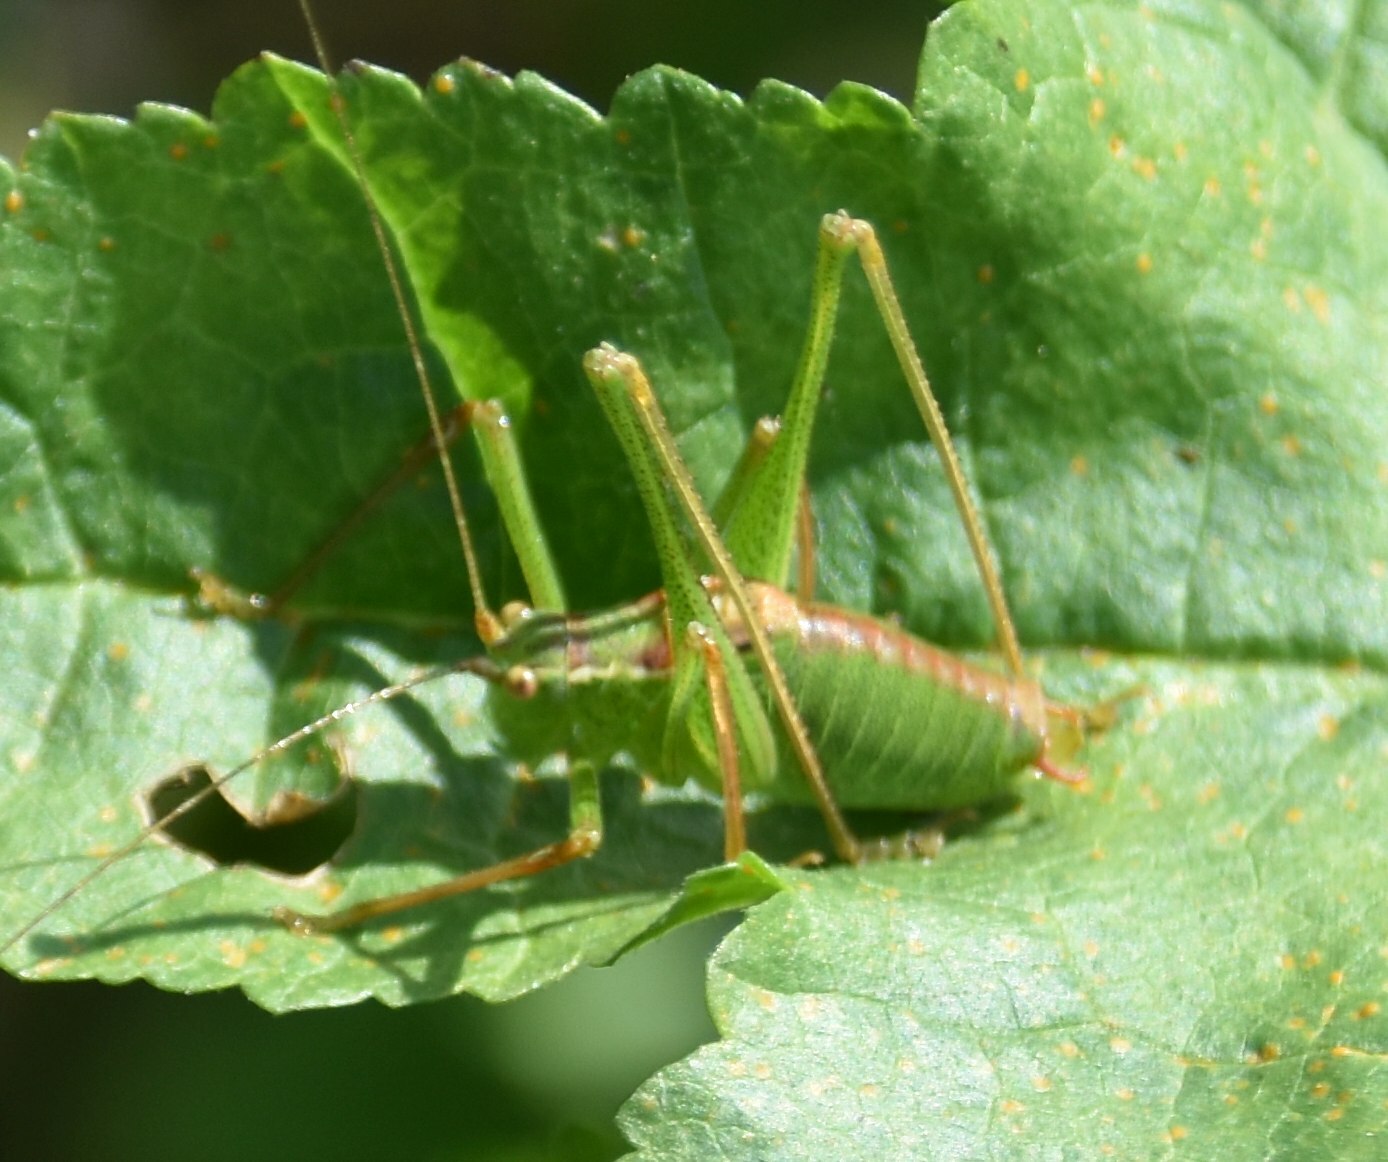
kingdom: Animalia
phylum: Arthropoda
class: Insecta
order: Orthoptera
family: Tettigoniidae
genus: Leptophyes
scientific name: Leptophyes punctatissima
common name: Speckled bush-cricket
